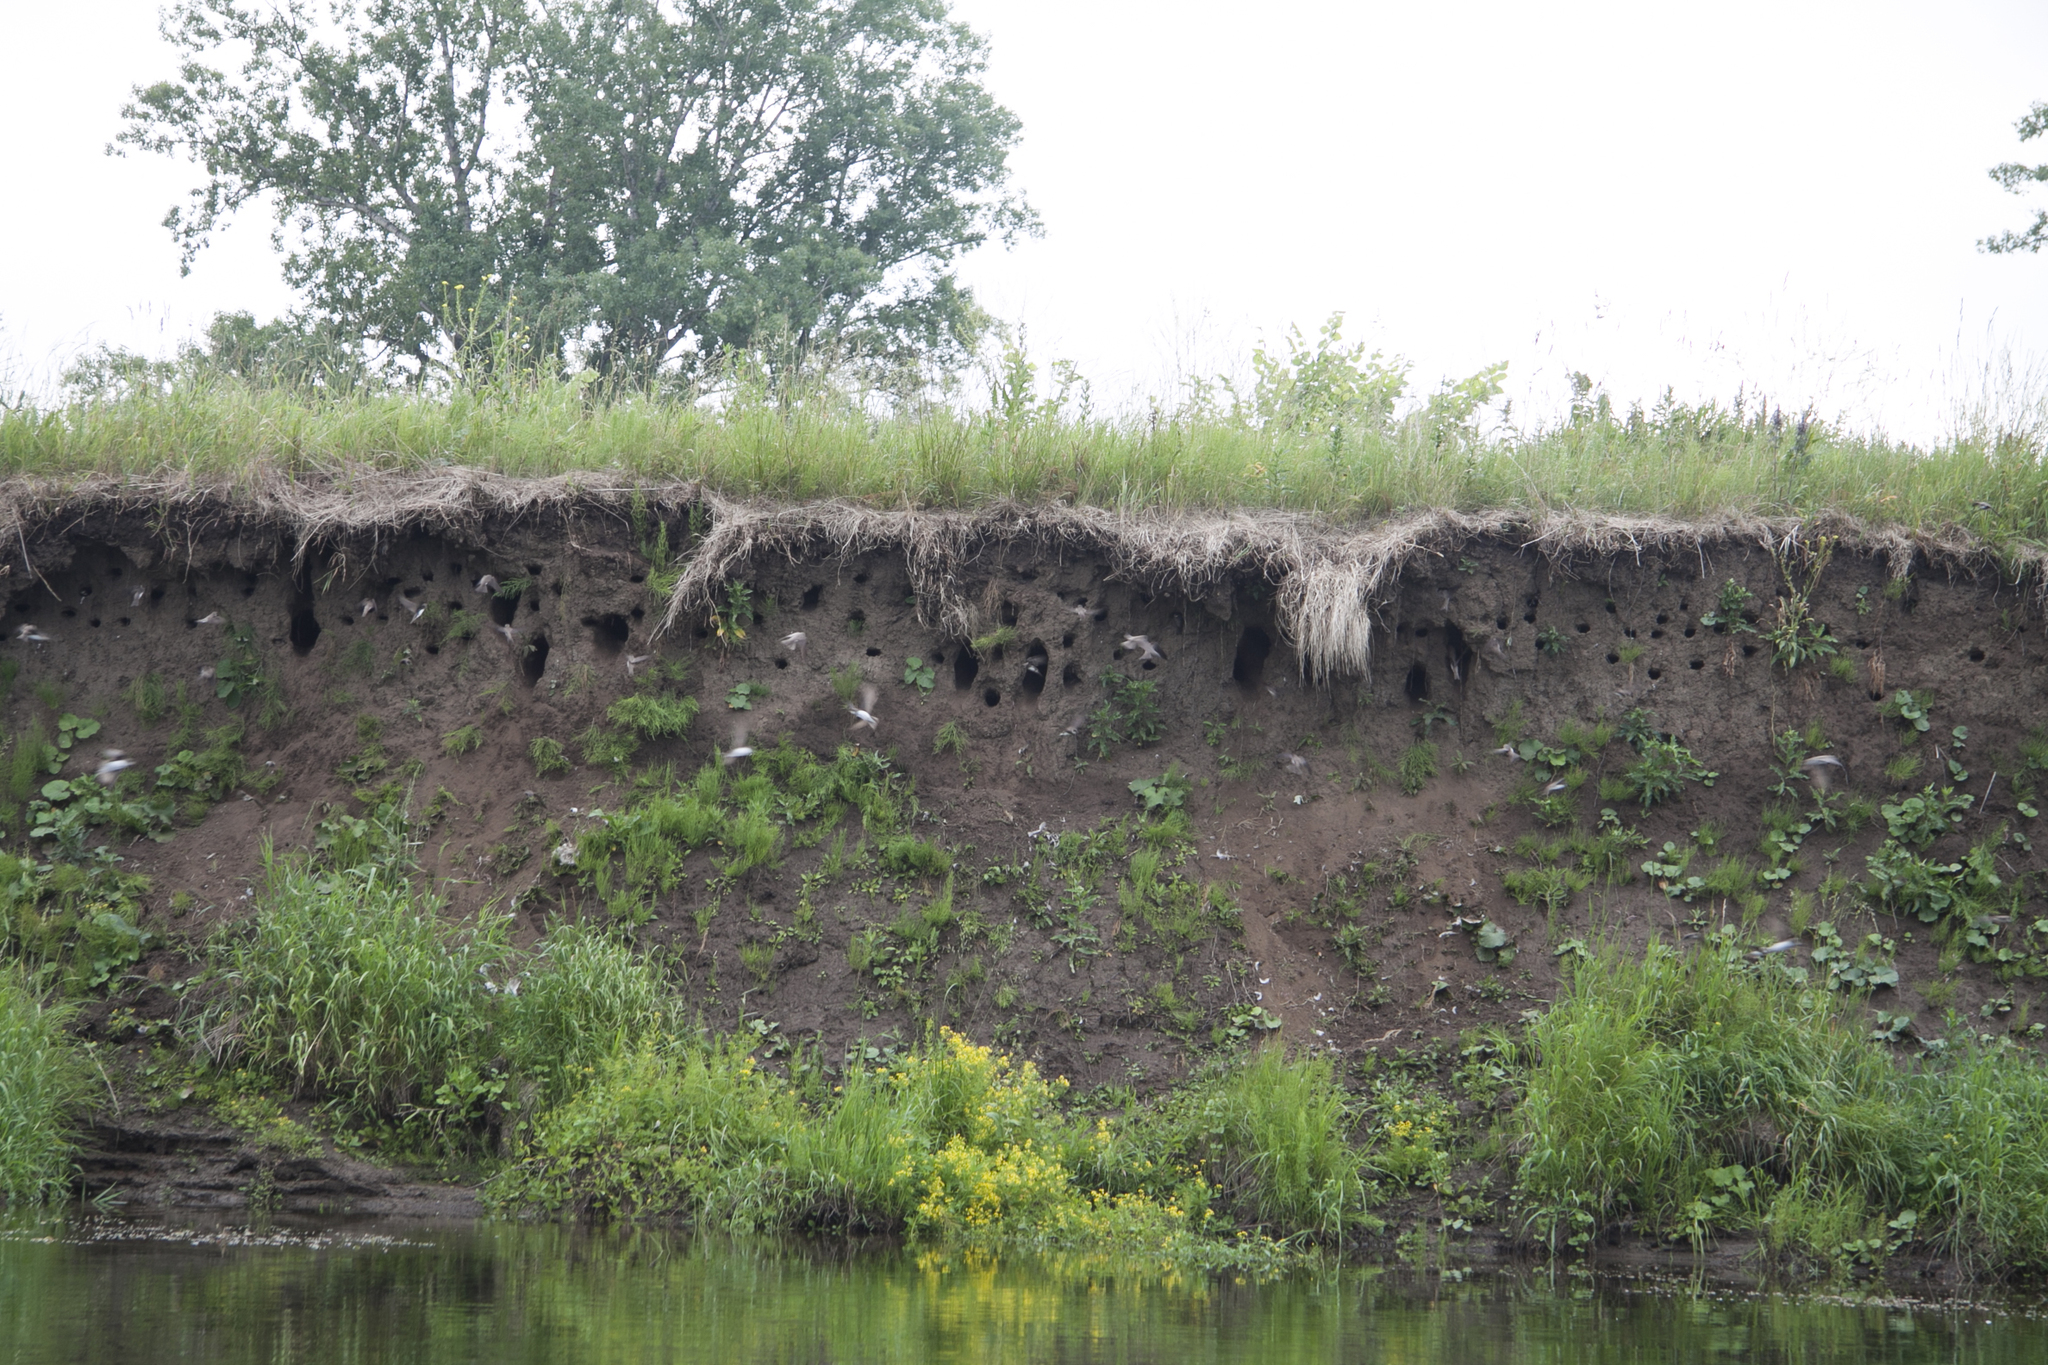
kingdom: Animalia
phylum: Chordata
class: Aves
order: Passeriformes
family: Hirundinidae
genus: Riparia
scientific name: Riparia riparia
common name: Sand martin
